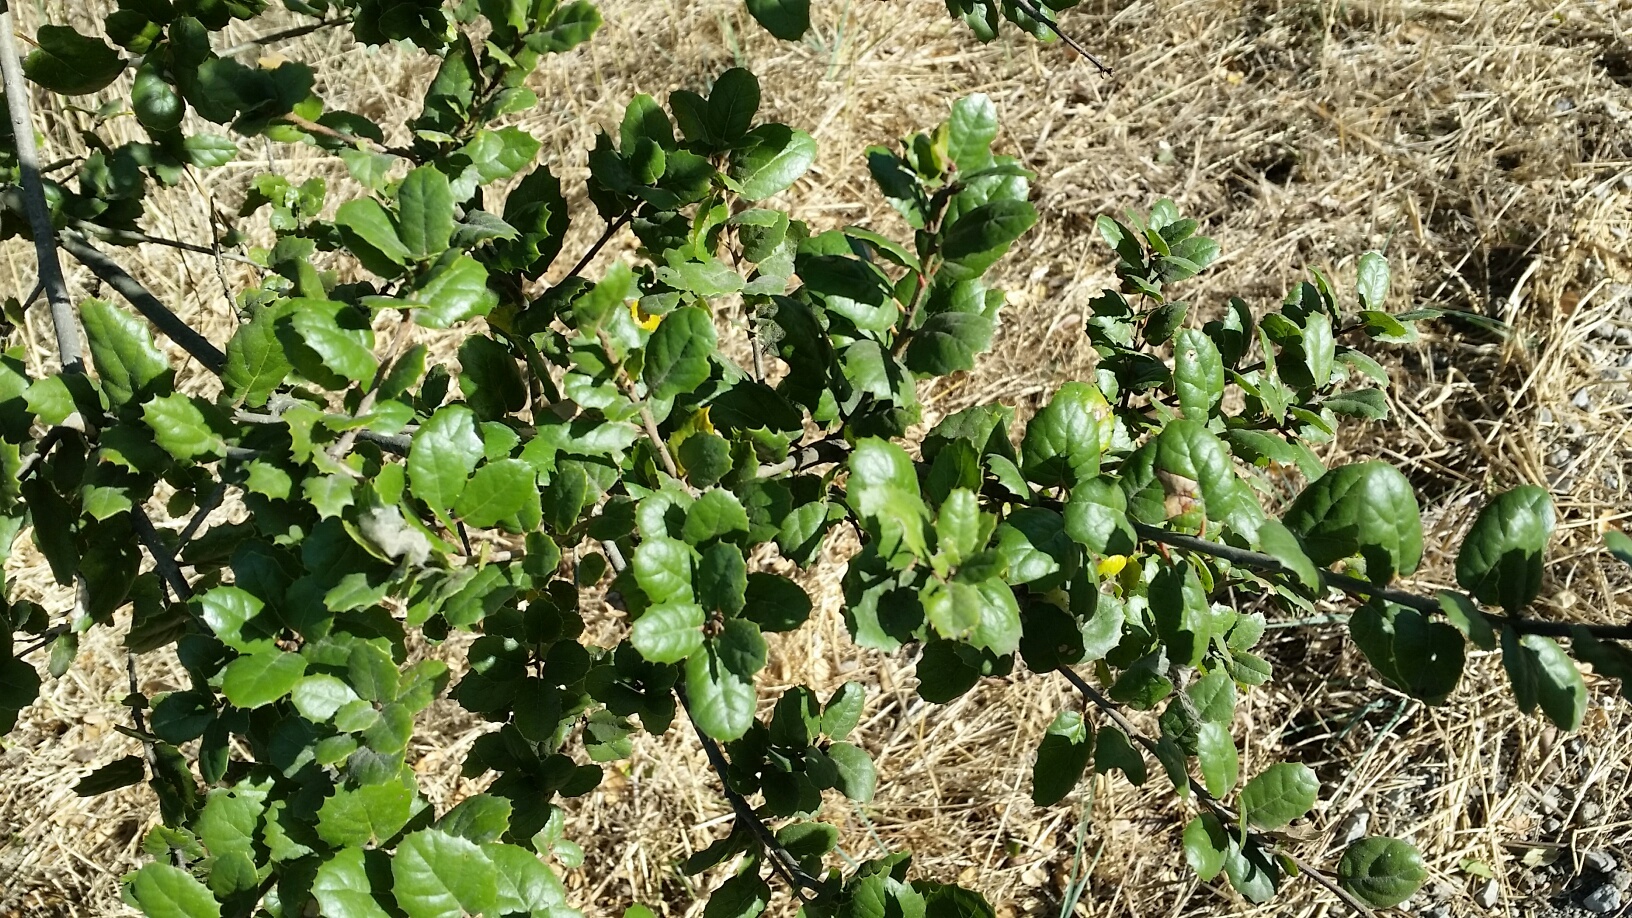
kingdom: Plantae
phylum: Tracheophyta
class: Magnoliopsida
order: Fagales
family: Fagaceae
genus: Quercus
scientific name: Quercus agrifolia
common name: California live oak
